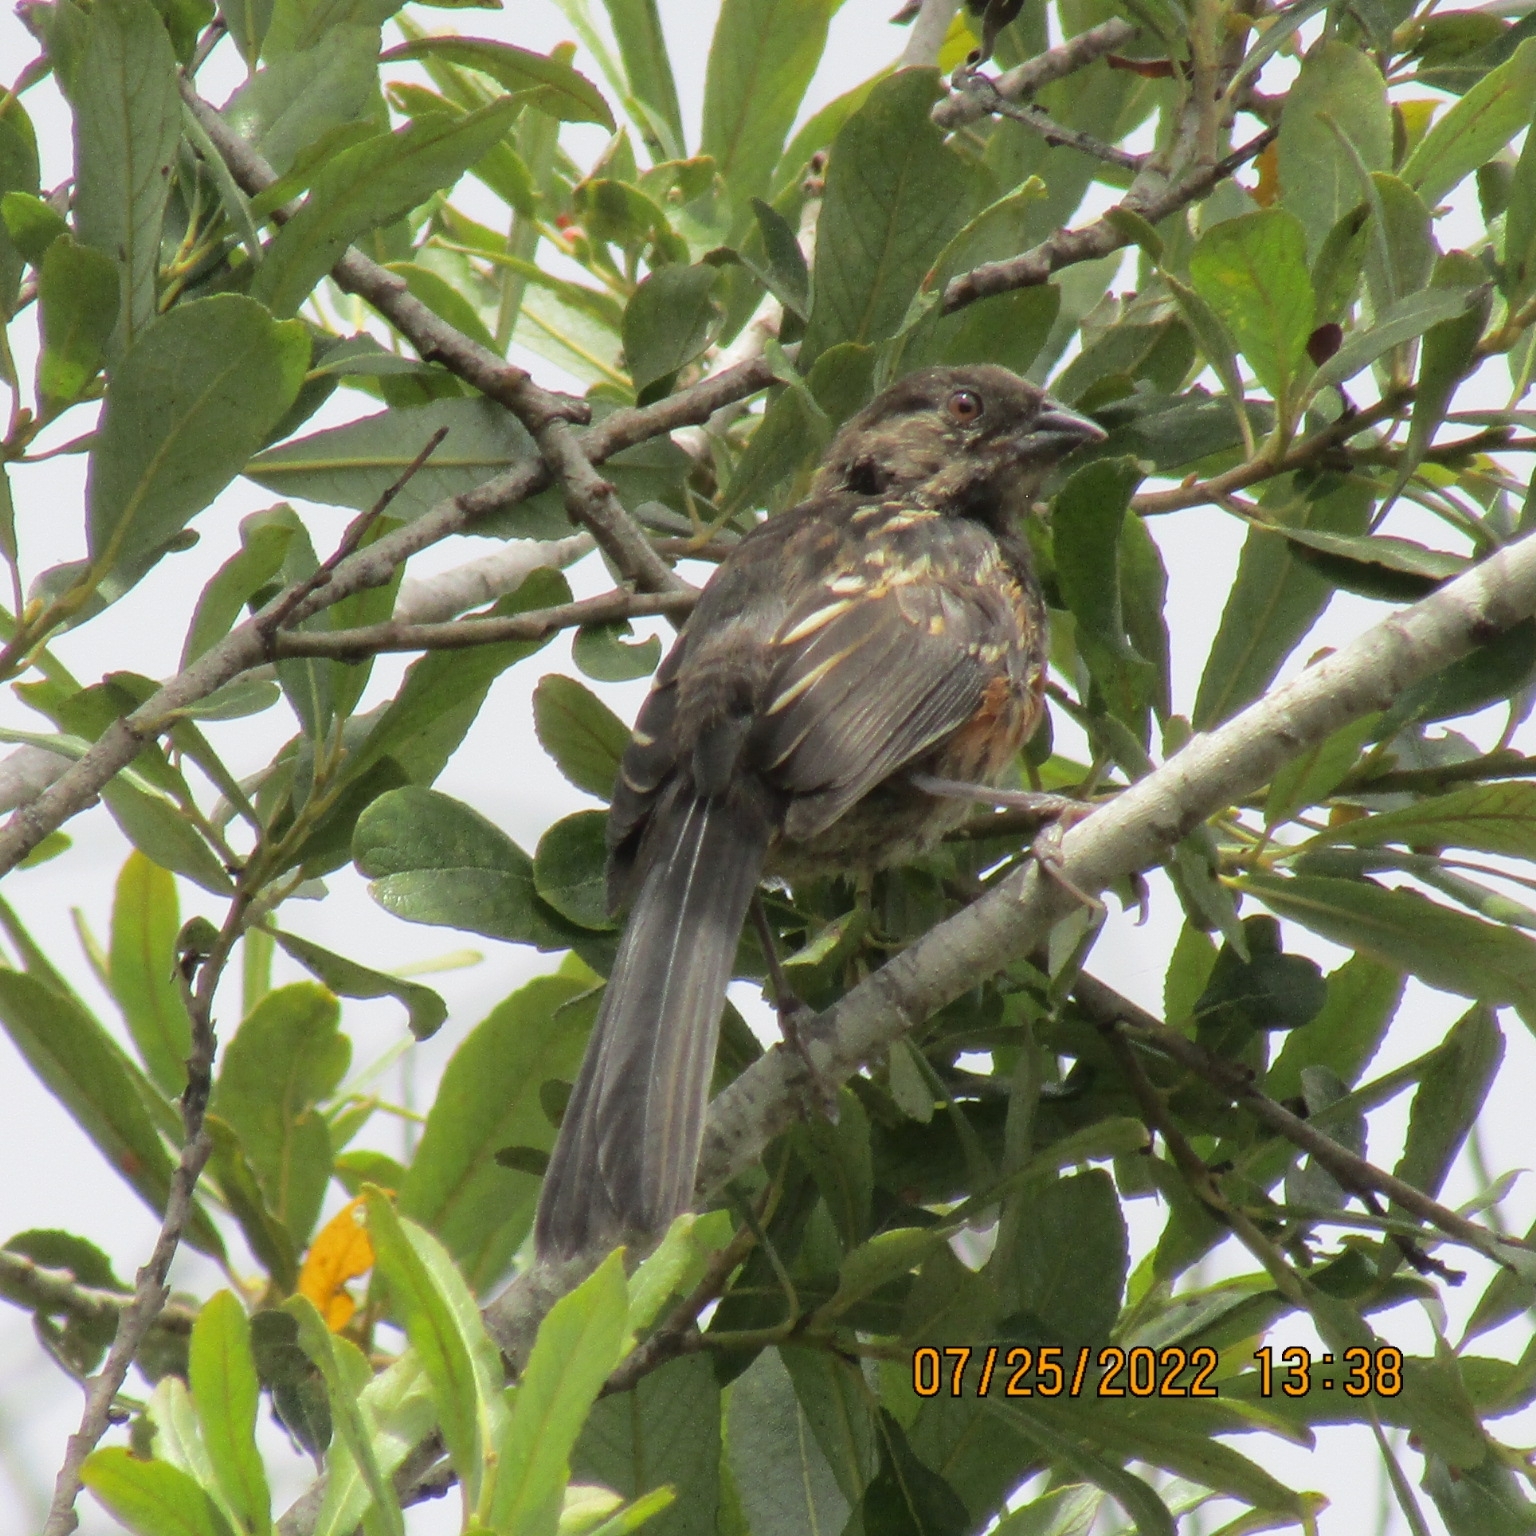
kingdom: Animalia
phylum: Chordata
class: Aves
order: Passeriformes
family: Passerellidae
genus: Pipilo
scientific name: Pipilo maculatus
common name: Spotted towhee
